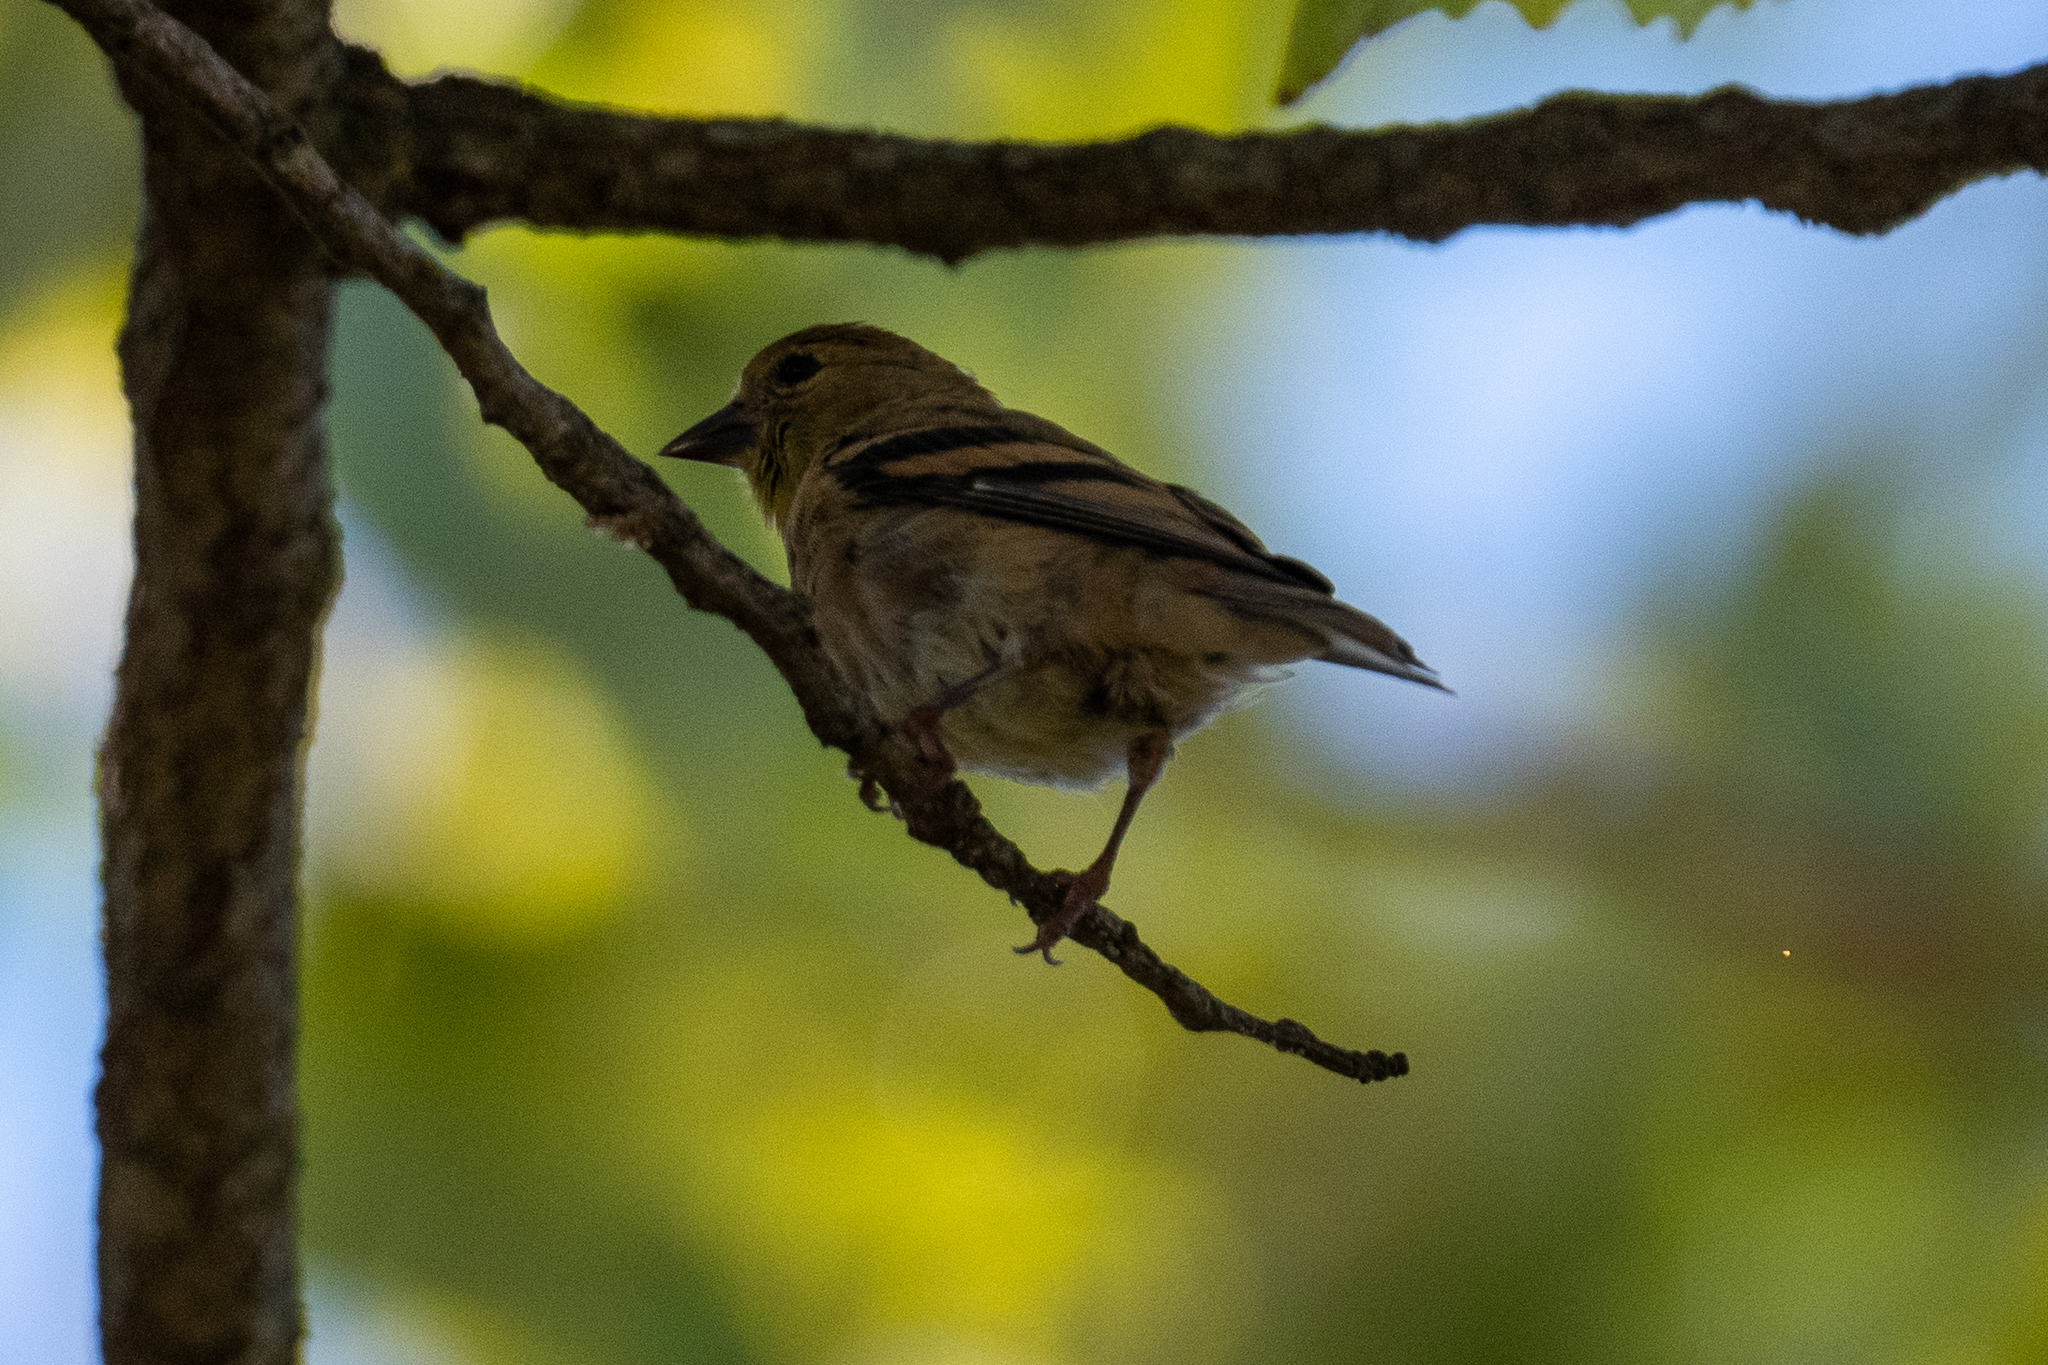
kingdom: Animalia
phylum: Chordata
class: Aves
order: Passeriformes
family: Fringillidae
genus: Spinus
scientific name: Spinus tristis
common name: American goldfinch
